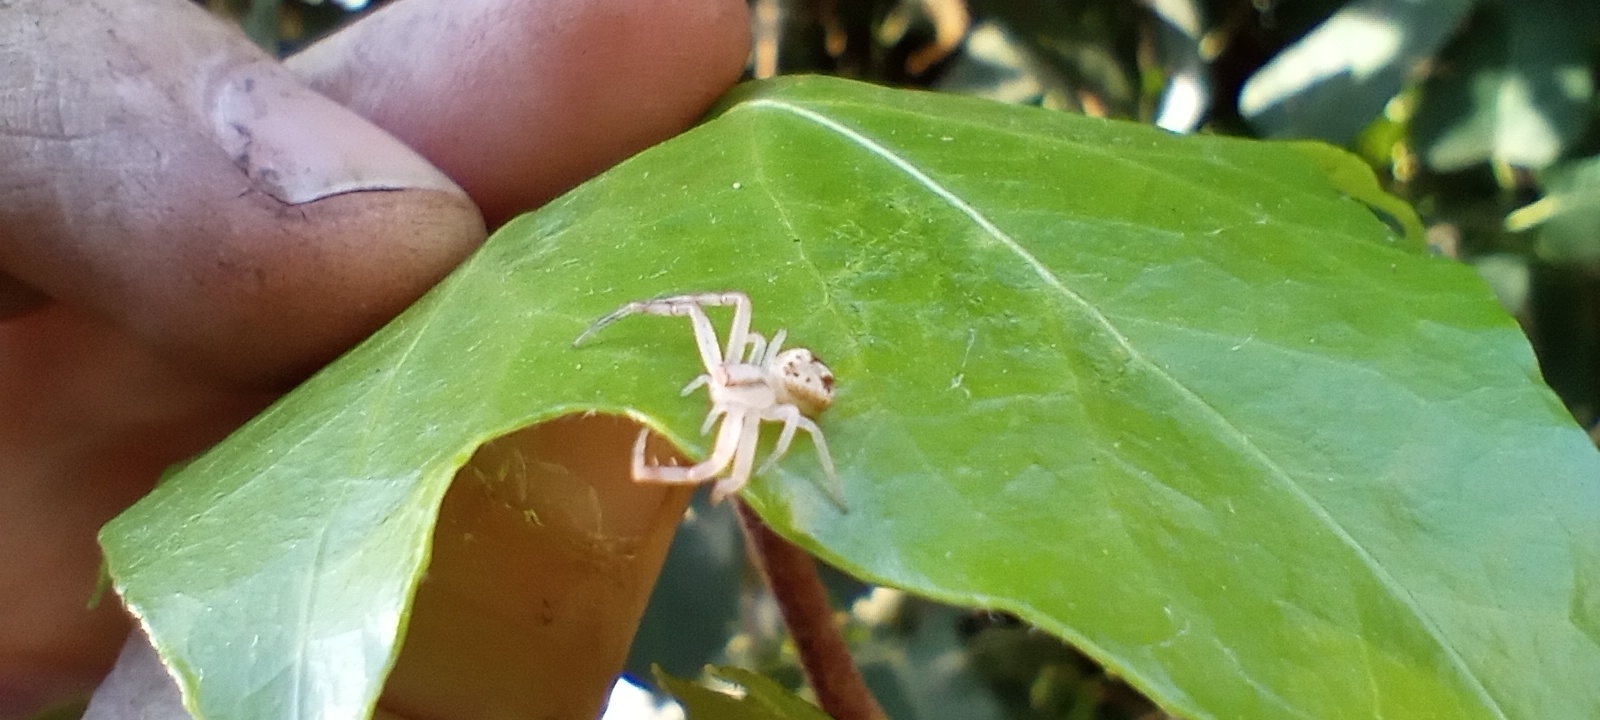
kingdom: Animalia
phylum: Arthropoda
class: Arachnida
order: Araneae
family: Thomisidae
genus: Misumenops
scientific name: Misumenops
